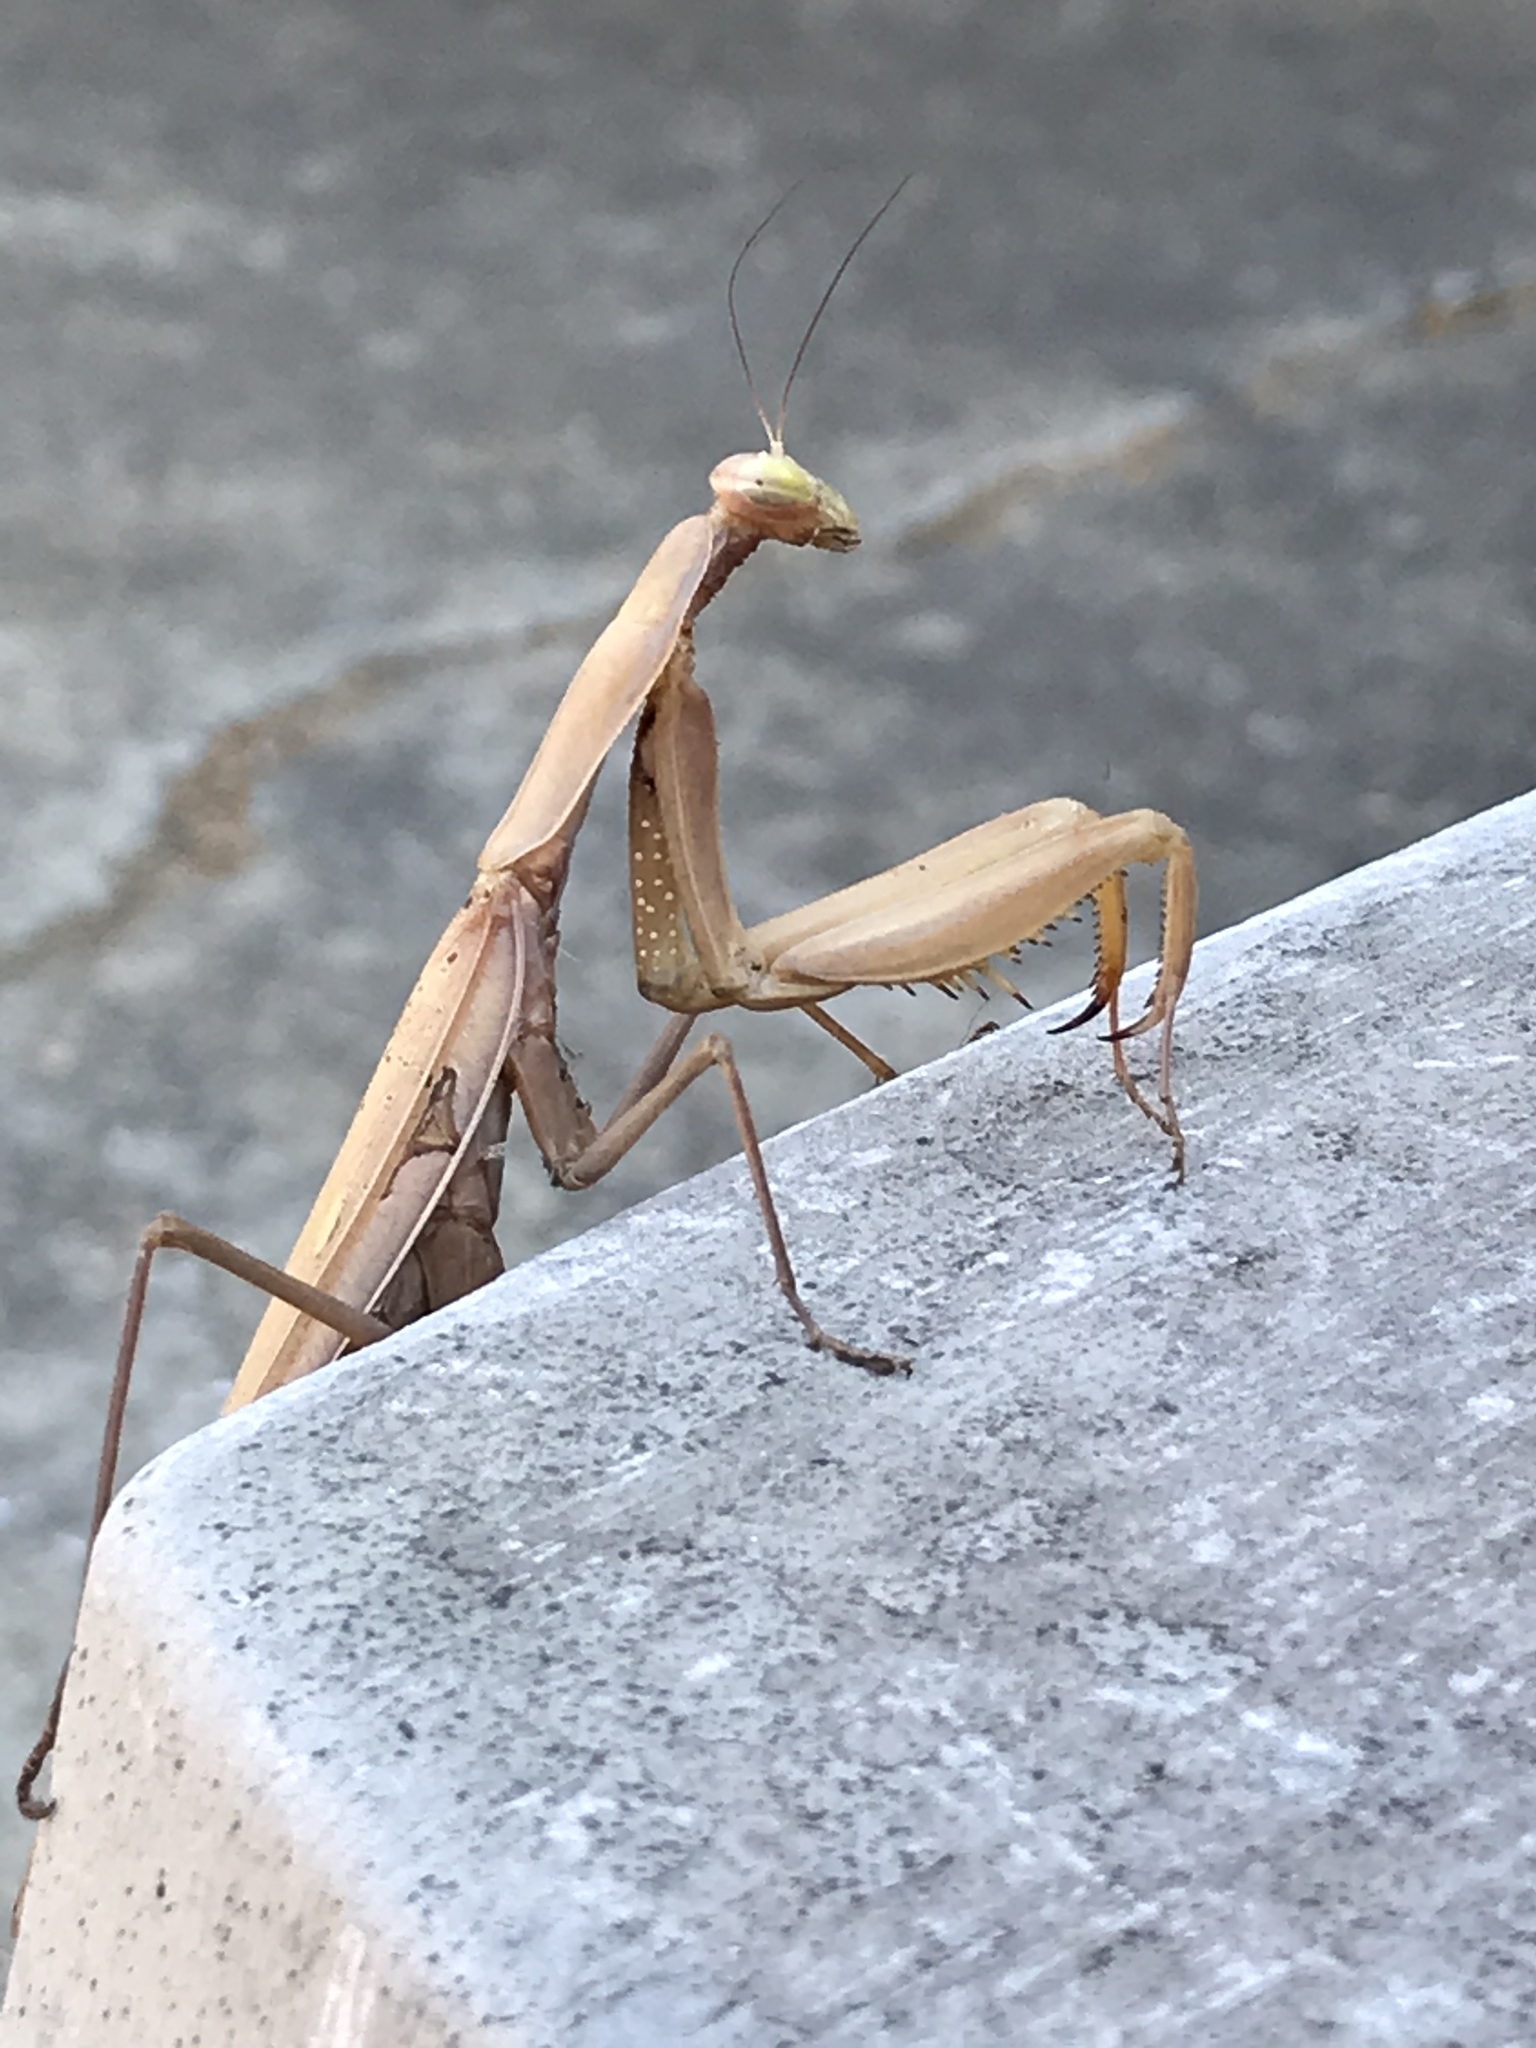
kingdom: Animalia
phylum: Arthropoda
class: Insecta
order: Mantodea
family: Mantidae
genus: Mantis
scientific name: Mantis religiosa
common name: Praying mantis
